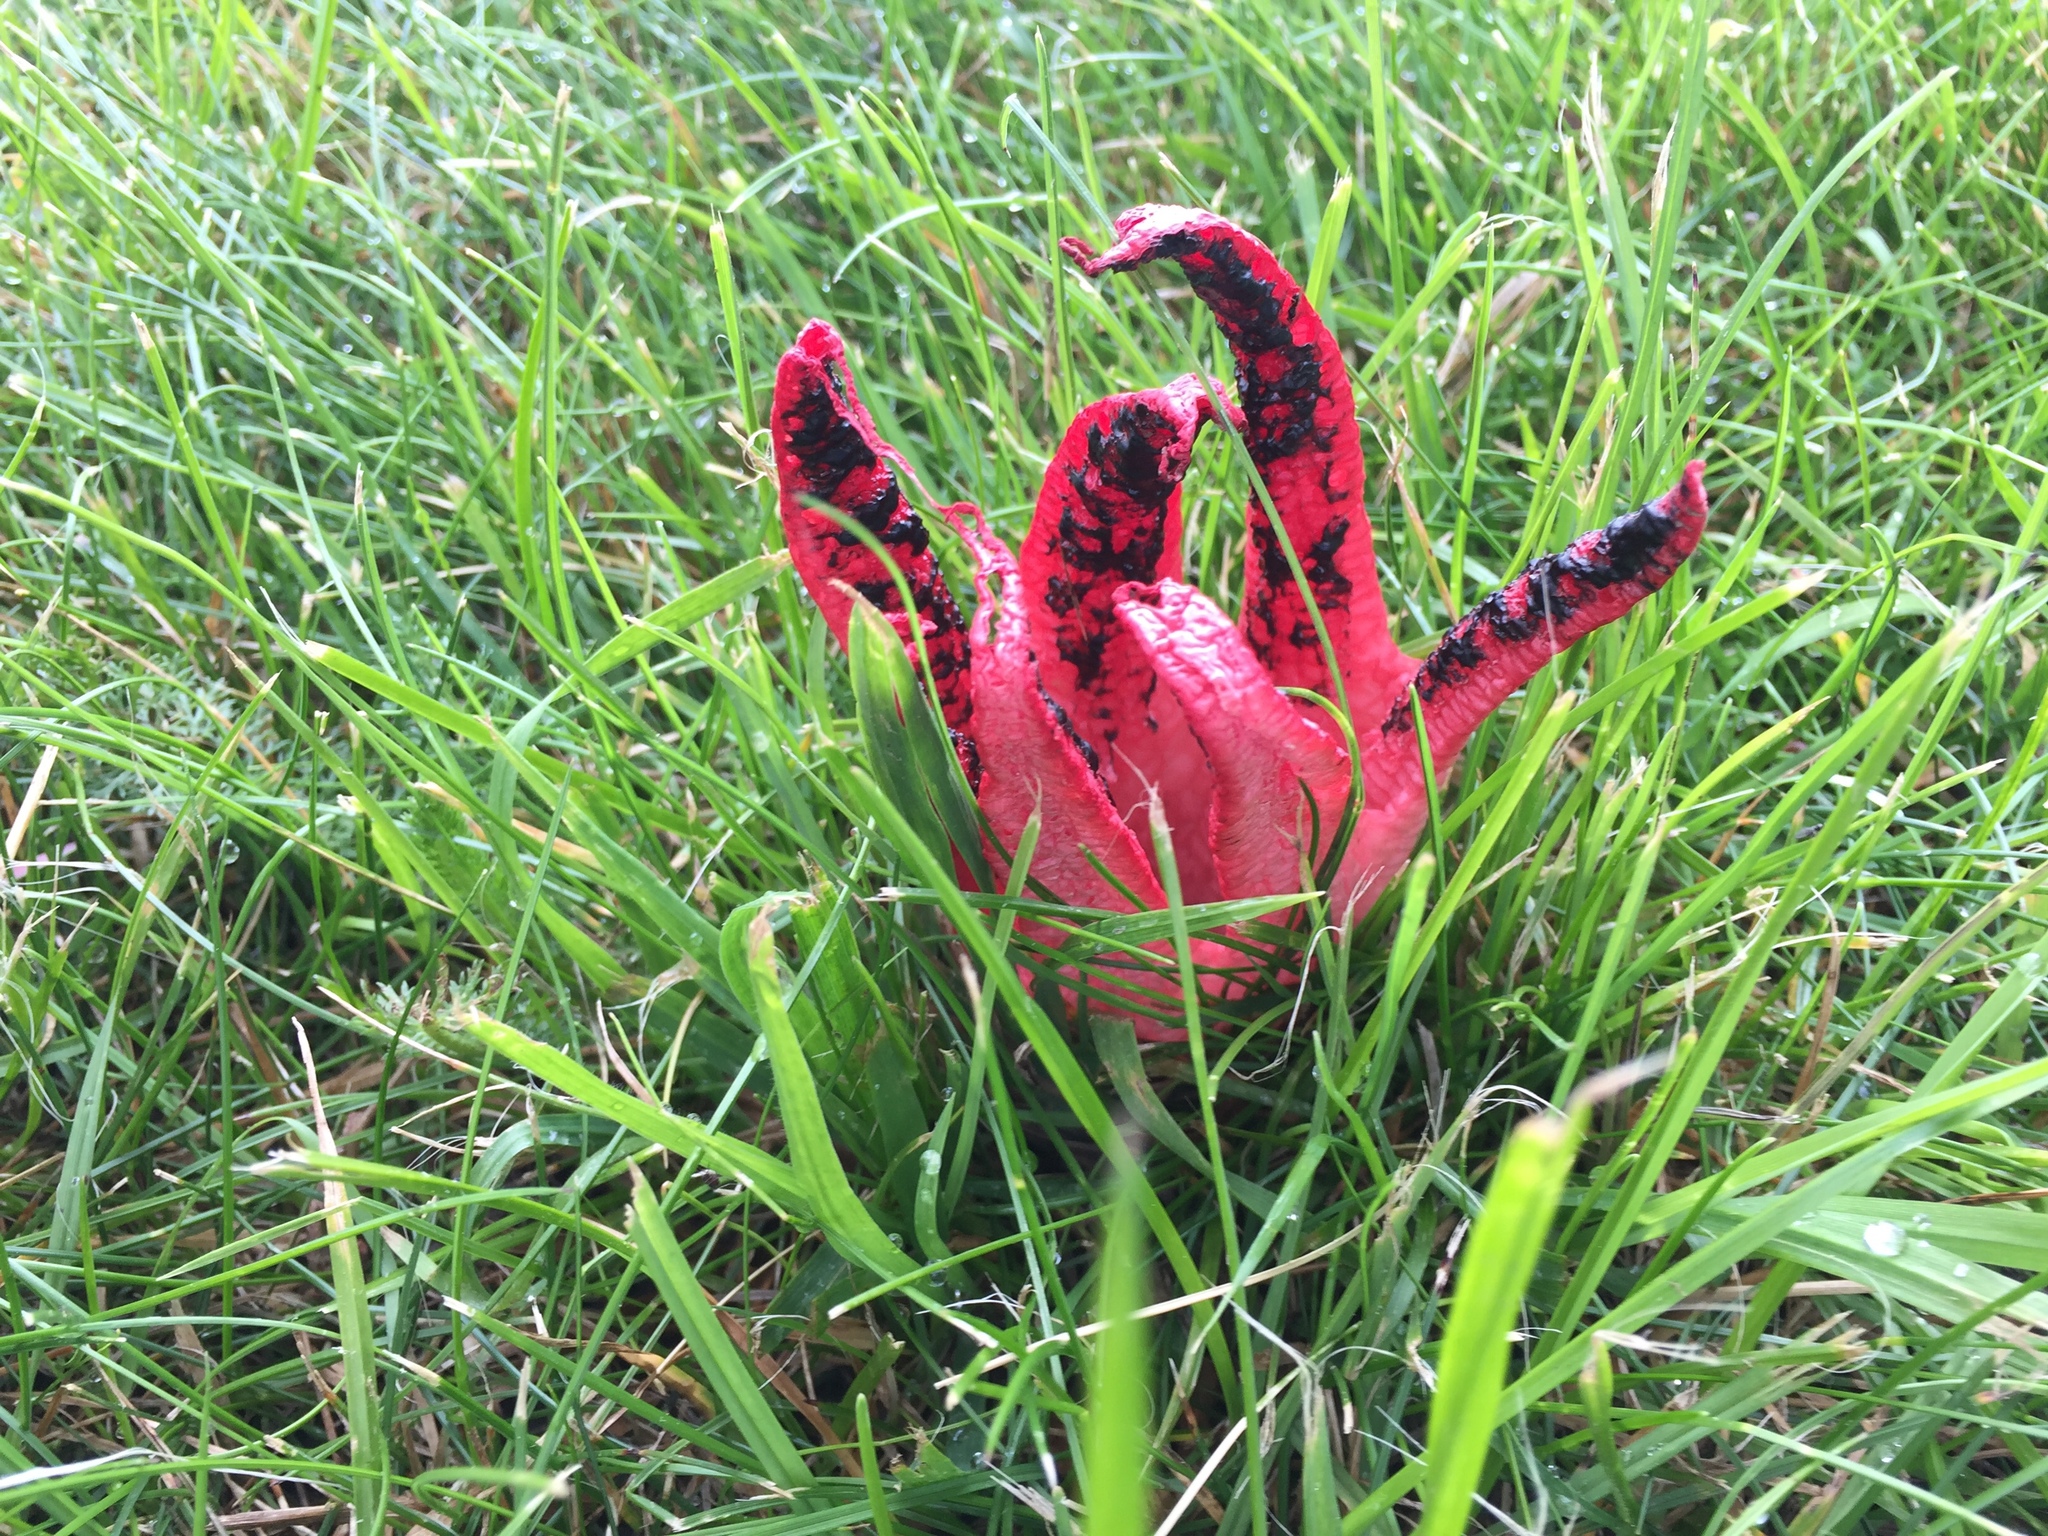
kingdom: Fungi
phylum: Basidiomycota
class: Agaricomycetes
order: Phallales
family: Phallaceae
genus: Clathrus
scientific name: Clathrus archeri
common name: Devil's fingers
